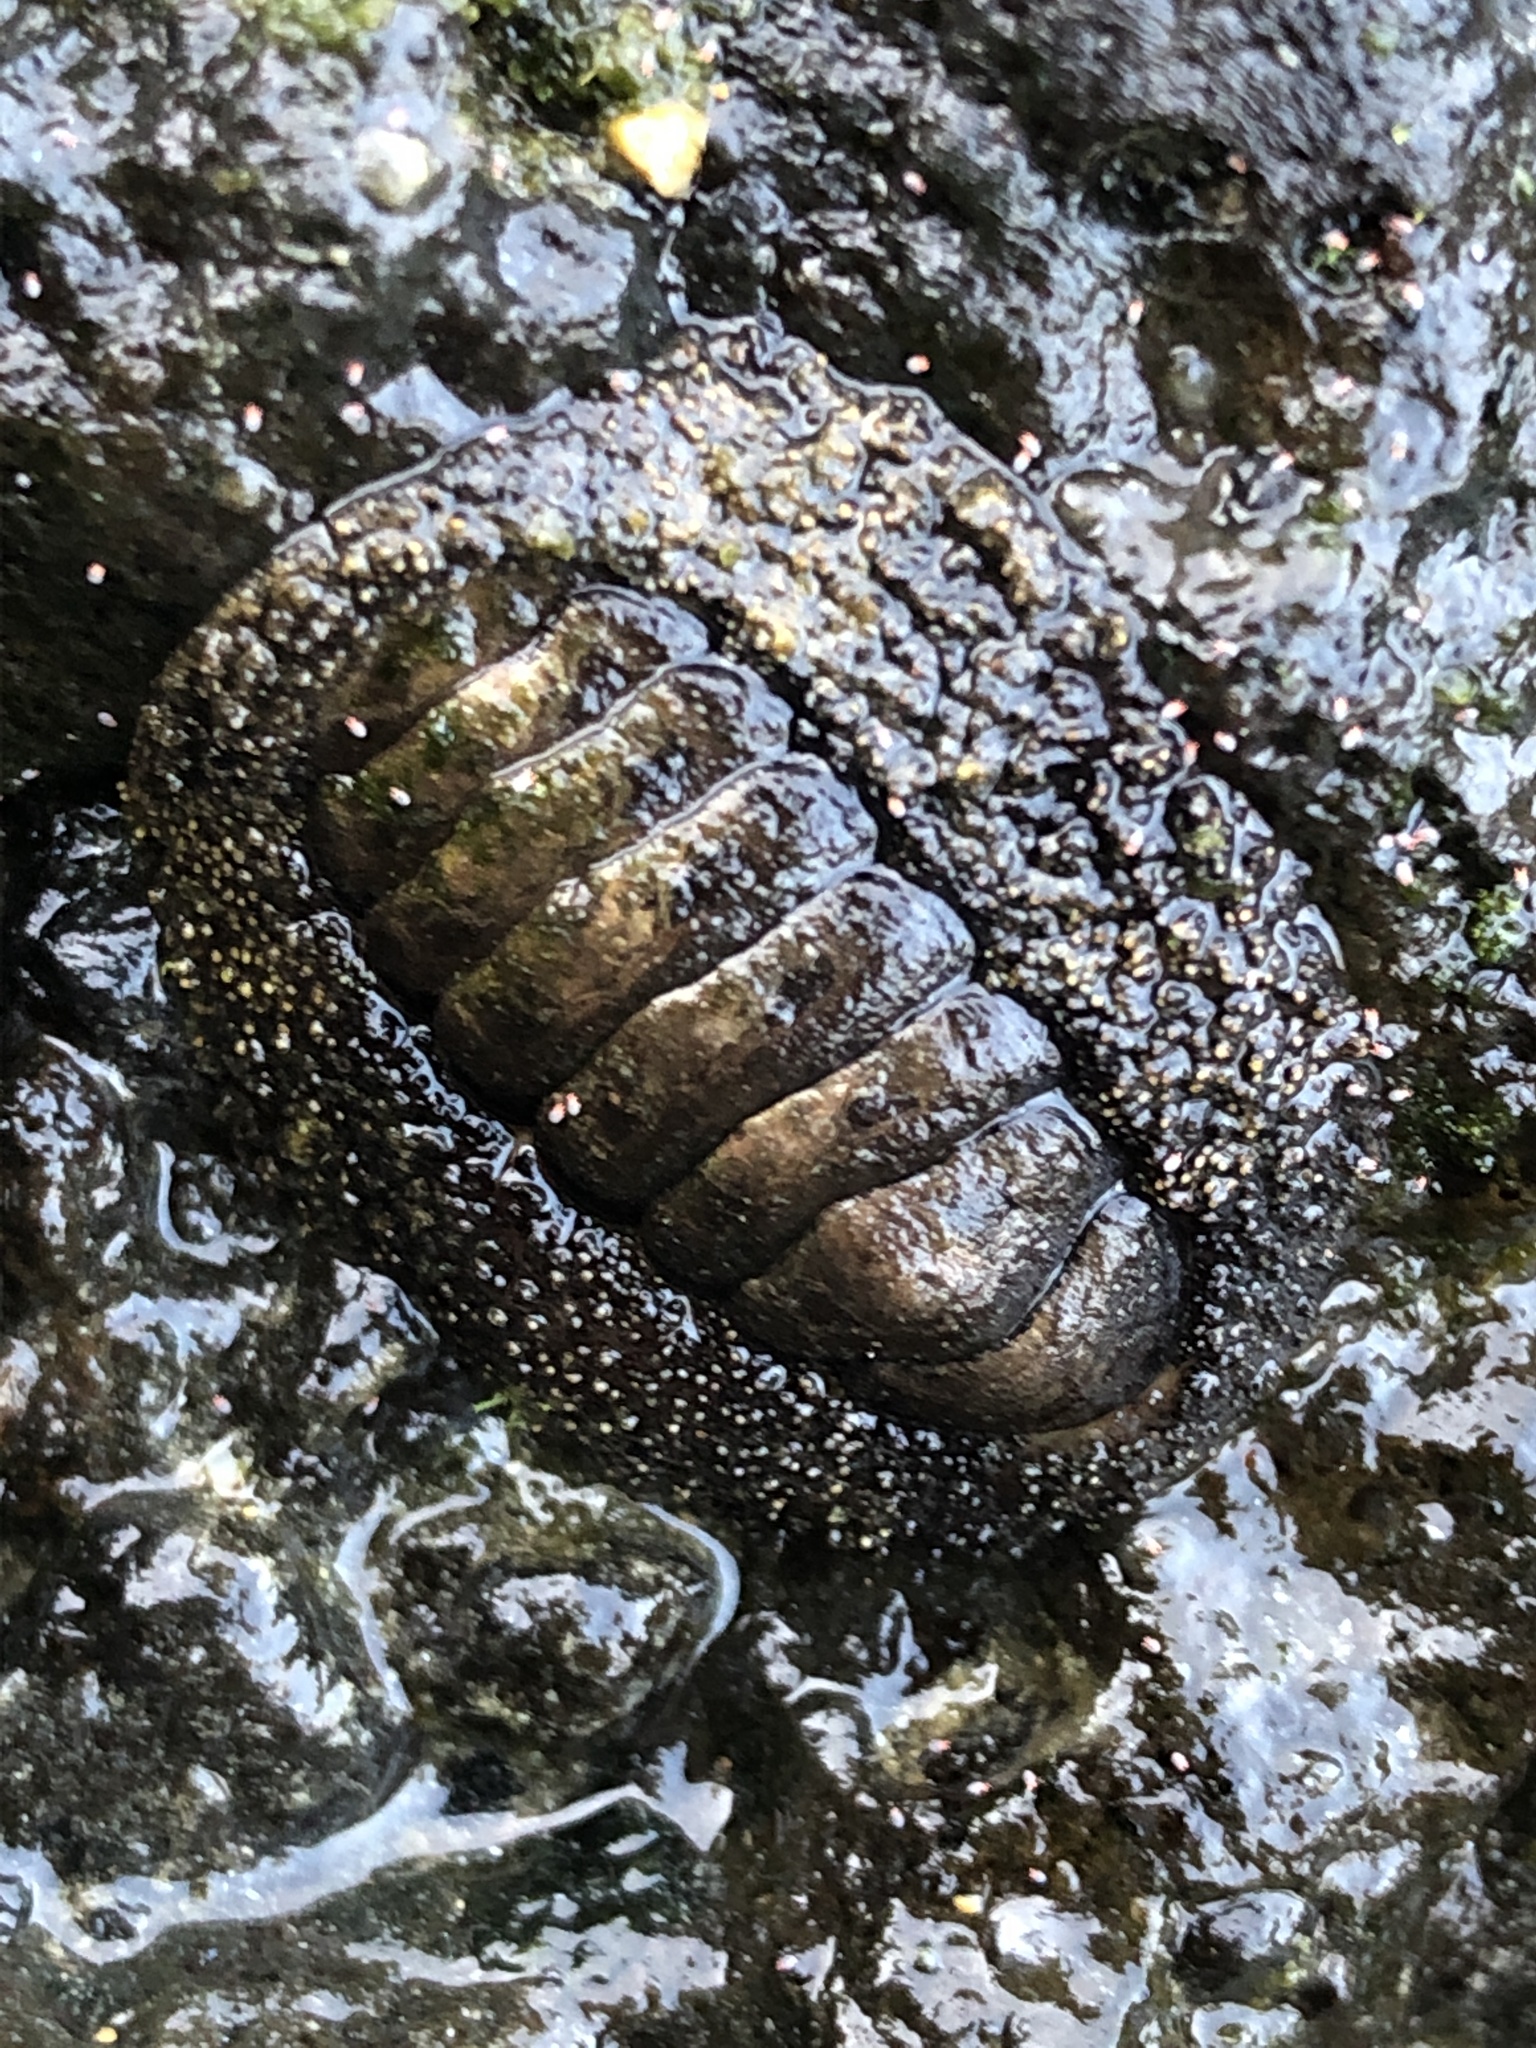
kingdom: Animalia
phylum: Mollusca
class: Polyplacophora
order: Chitonida
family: Chitonidae
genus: Liolophura
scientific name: Liolophura japonica
